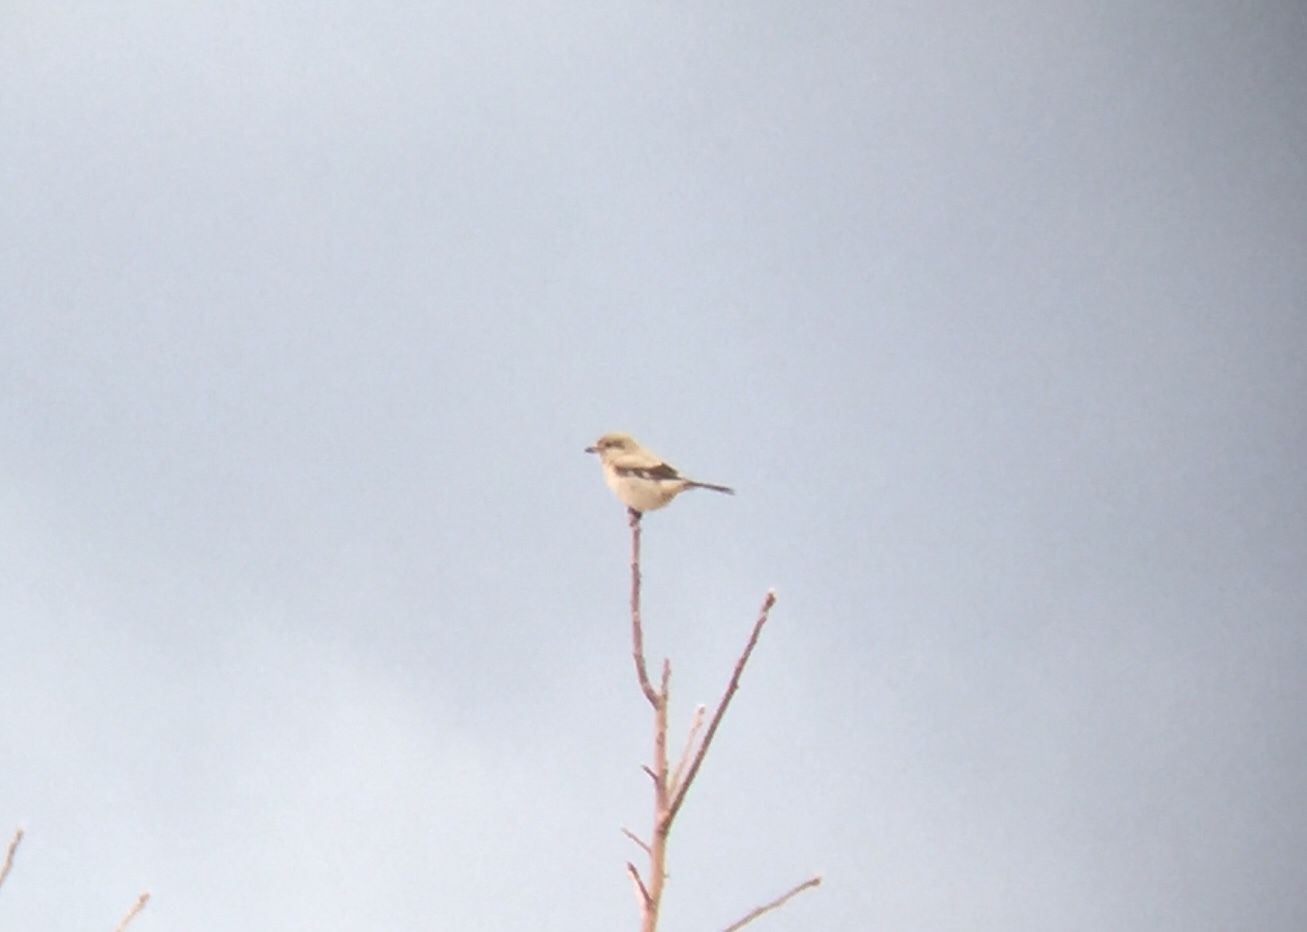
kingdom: Animalia
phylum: Chordata
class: Aves
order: Passeriformes
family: Laniidae
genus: Lanius
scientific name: Lanius borealis
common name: Northern shrike
